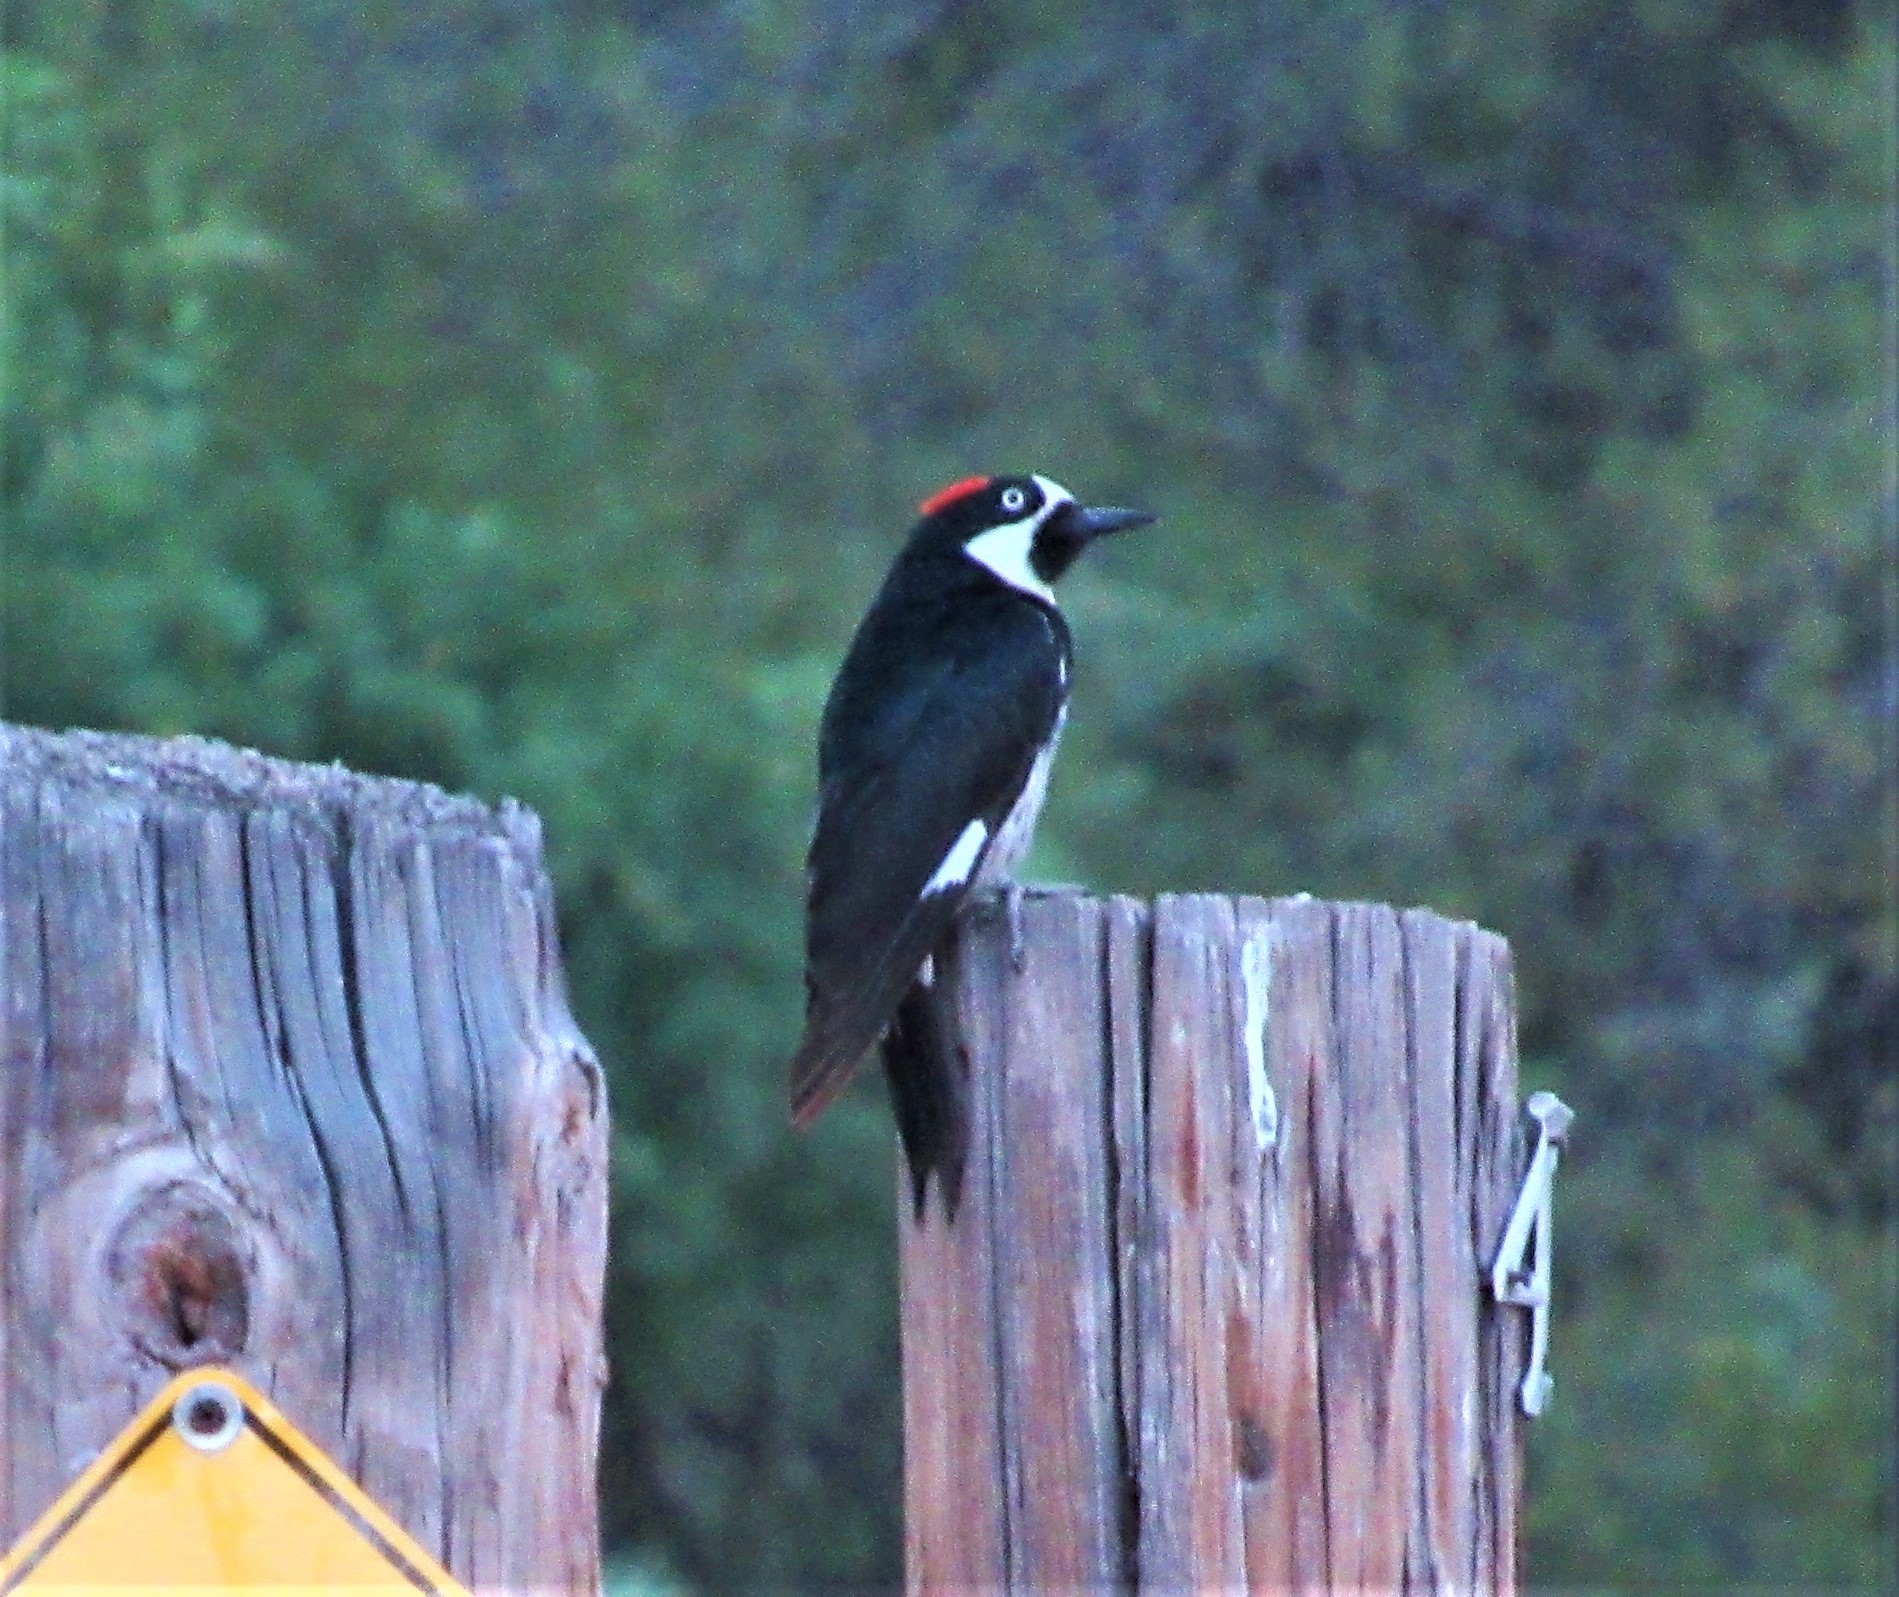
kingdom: Animalia
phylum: Chordata
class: Aves
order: Piciformes
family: Picidae
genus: Melanerpes
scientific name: Melanerpes formicivorus
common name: Acorn woodpecker
